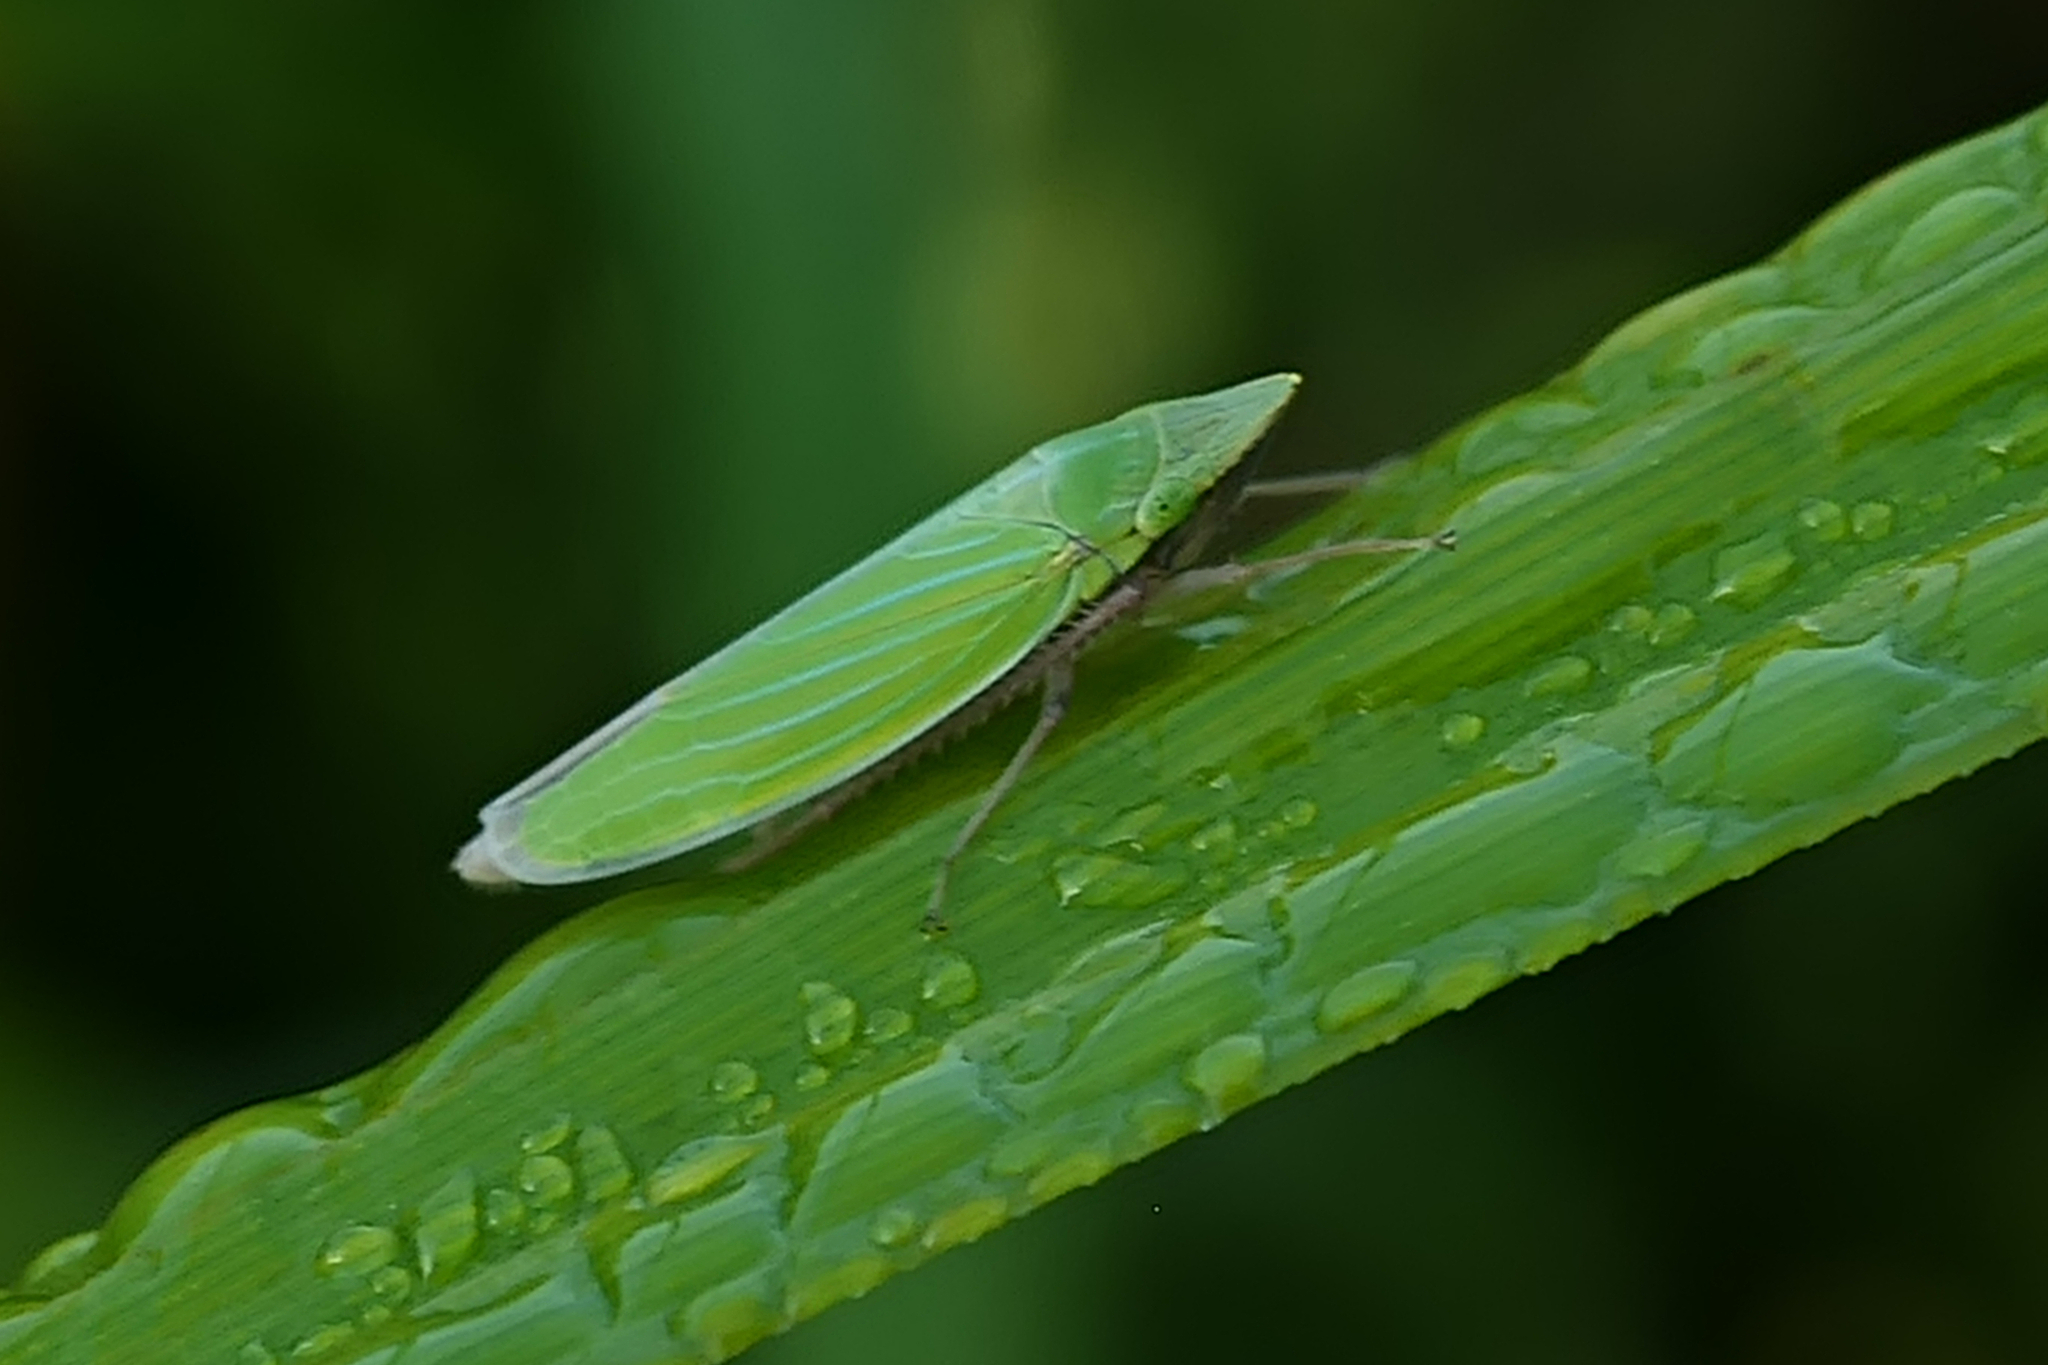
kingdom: Animalia
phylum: Arthropoda
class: Insecta
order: Hemiptera
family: Cicadellidae
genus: Draeculacephala
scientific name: Draeculacephala robinsoni
